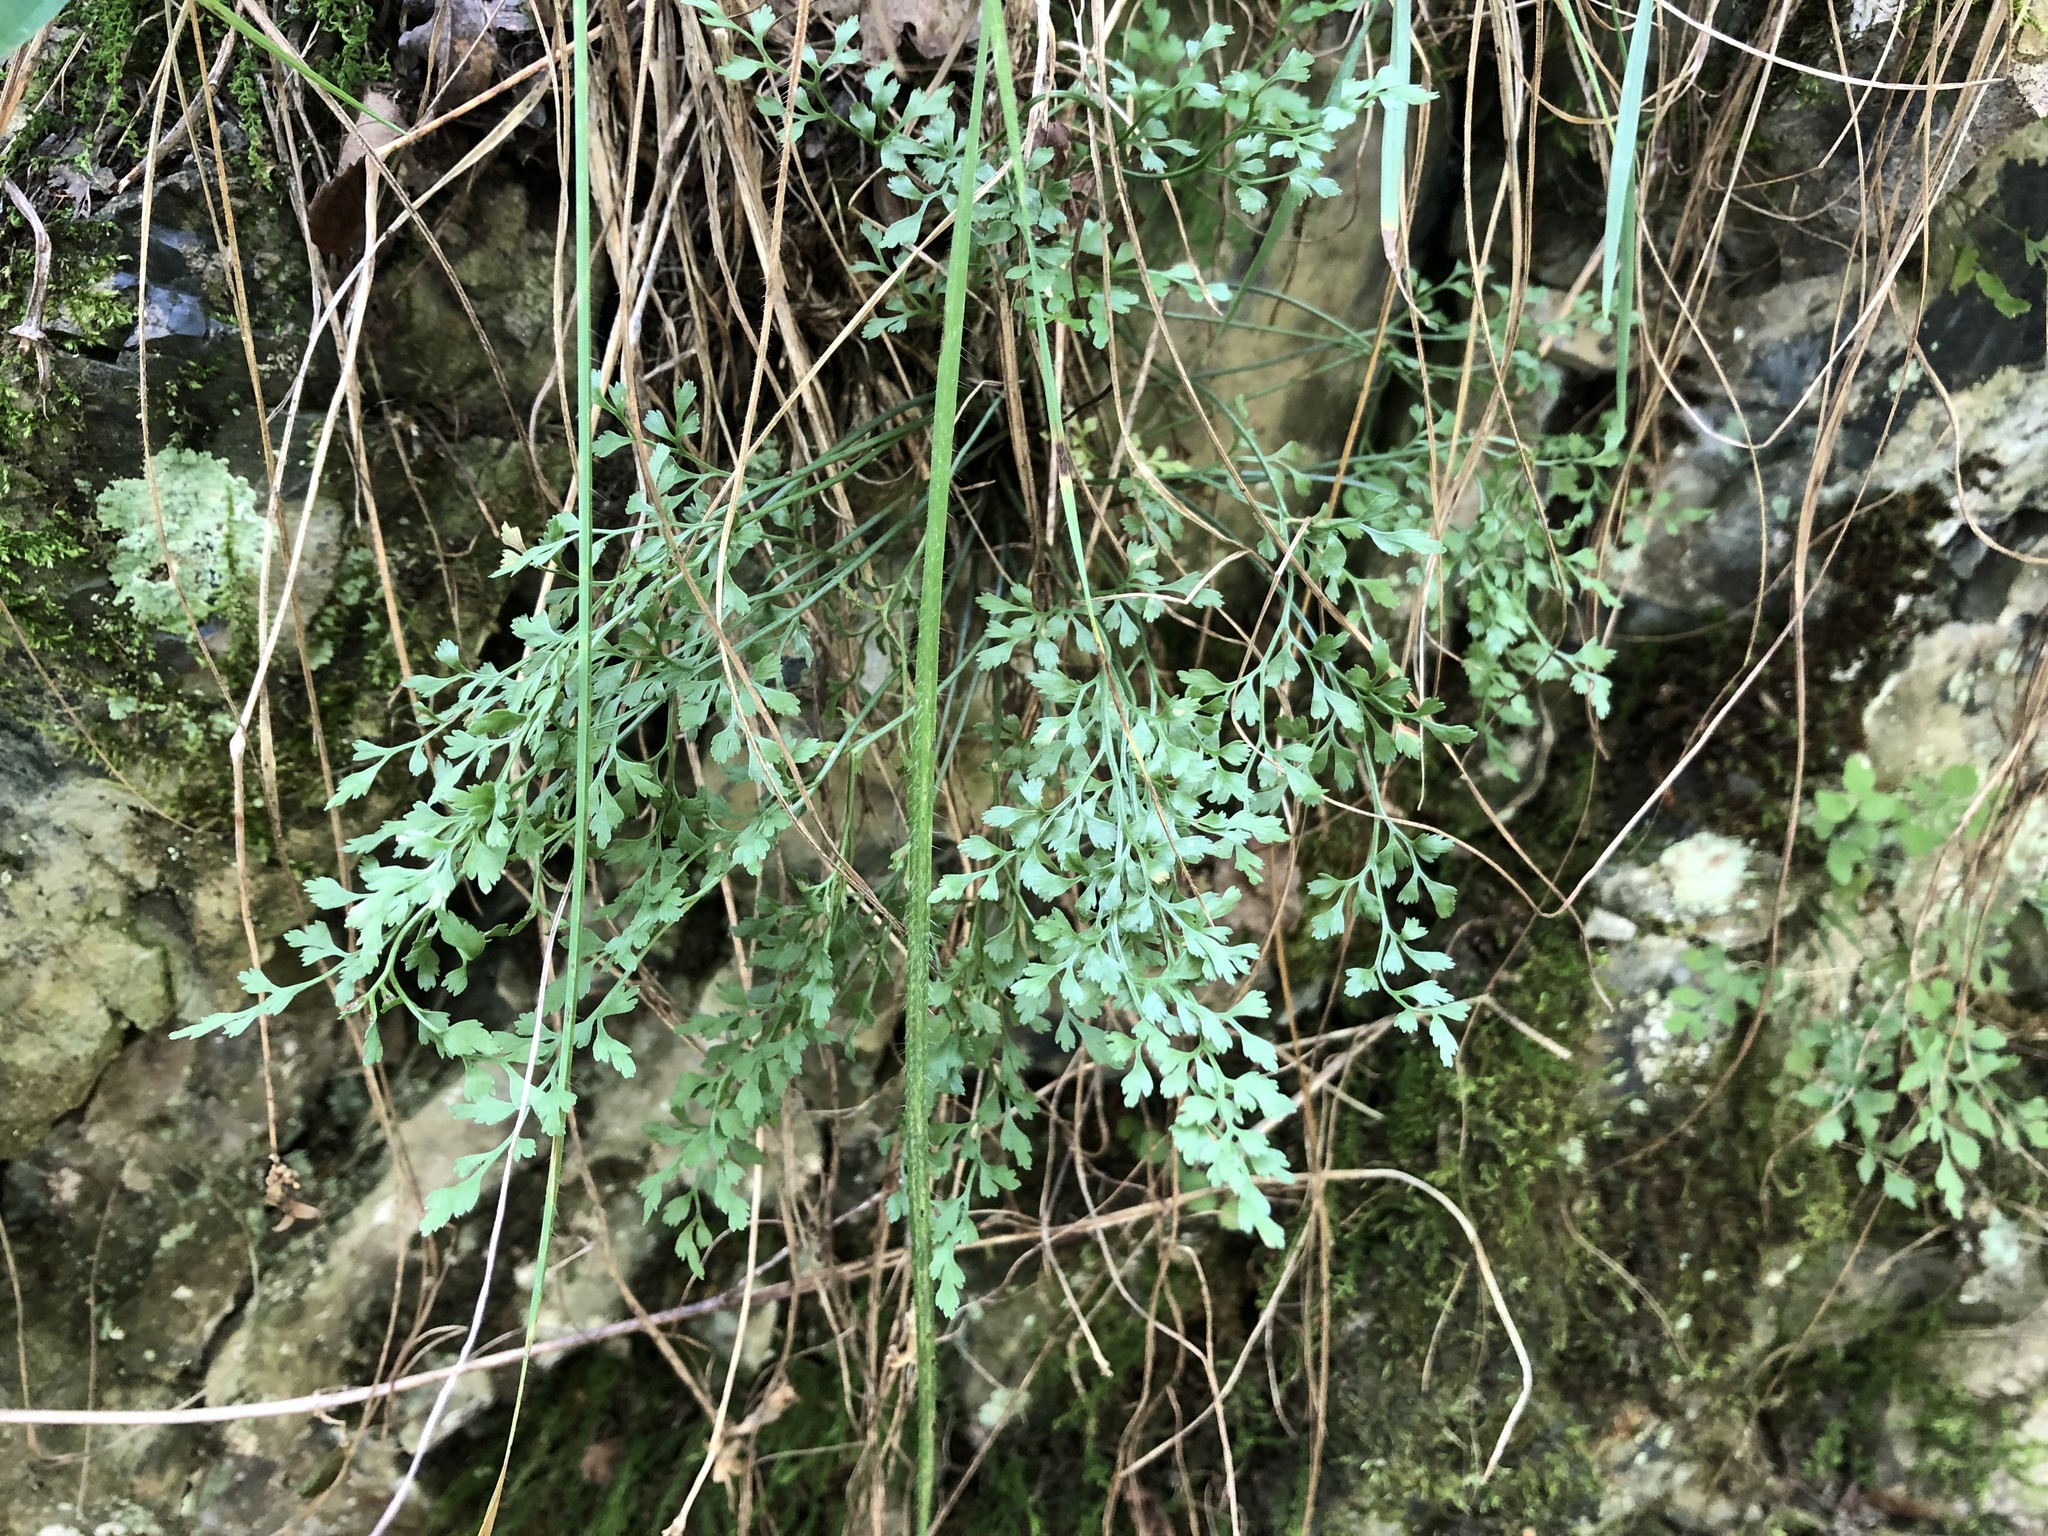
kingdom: Plantae
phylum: Tracheophyta
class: Polypodiopsida
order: Polypodiales
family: Aspleniaceae
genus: Asplenium
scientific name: Asplenium ruta-muraria
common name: Wall-rue
